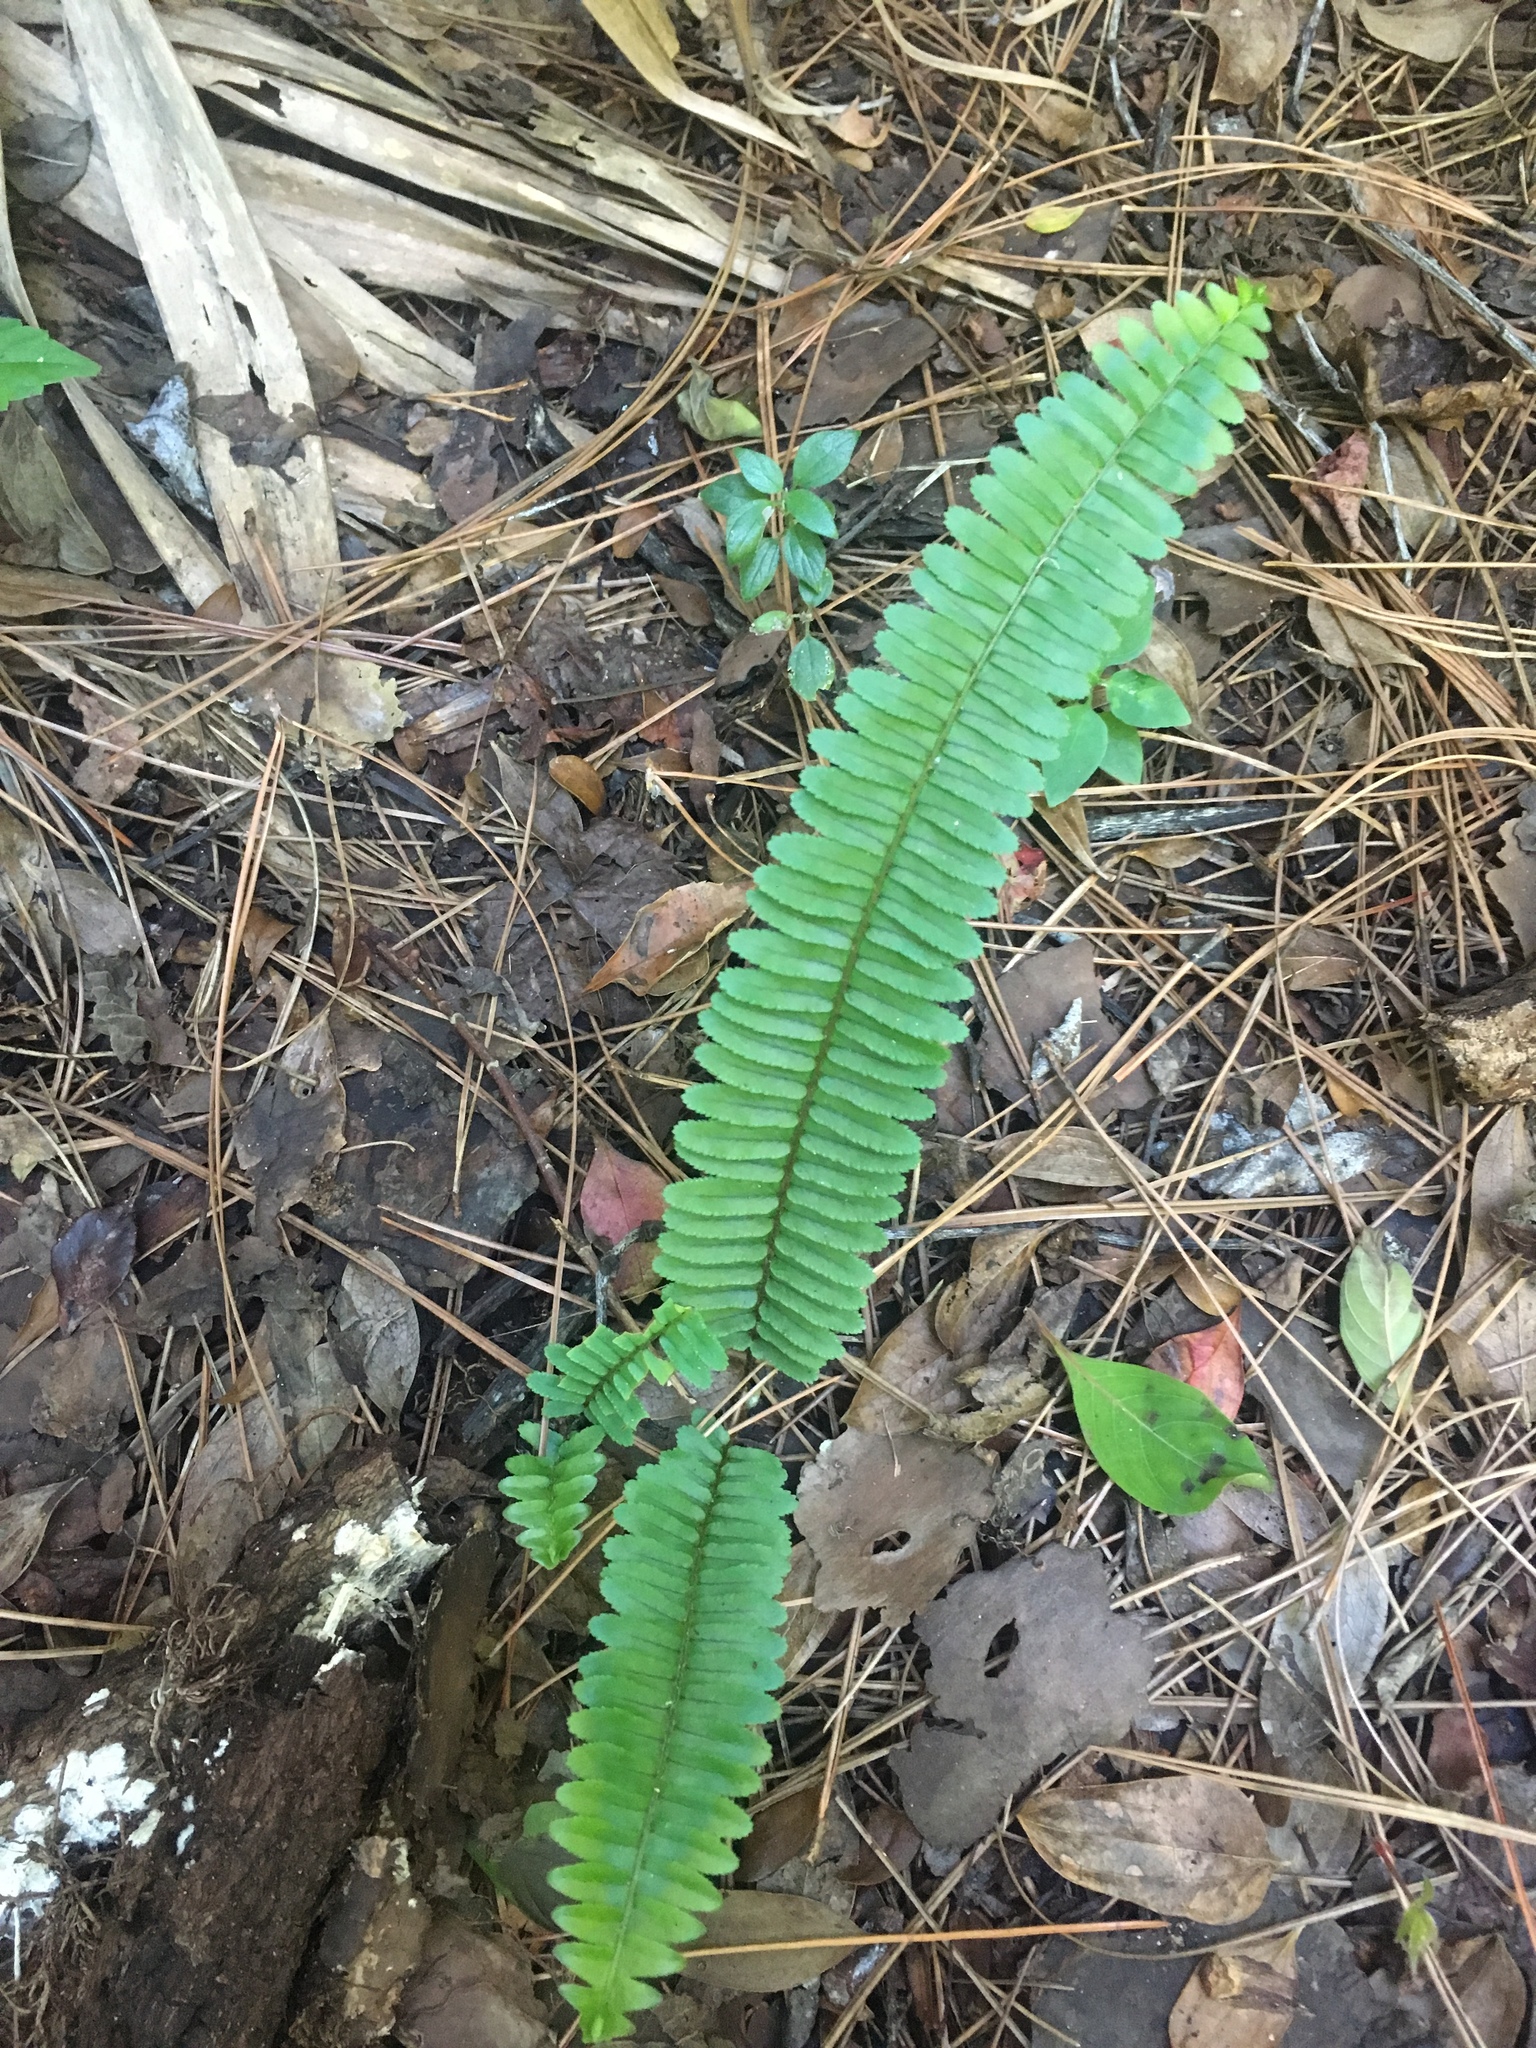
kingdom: Plantae
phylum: Tracheophyta
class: Polypodiopsida
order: Polypodiales
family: Nephrolepidaceae
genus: Nephrolepis
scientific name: Nephrolepis cordifolia
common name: Narrow swordfern
